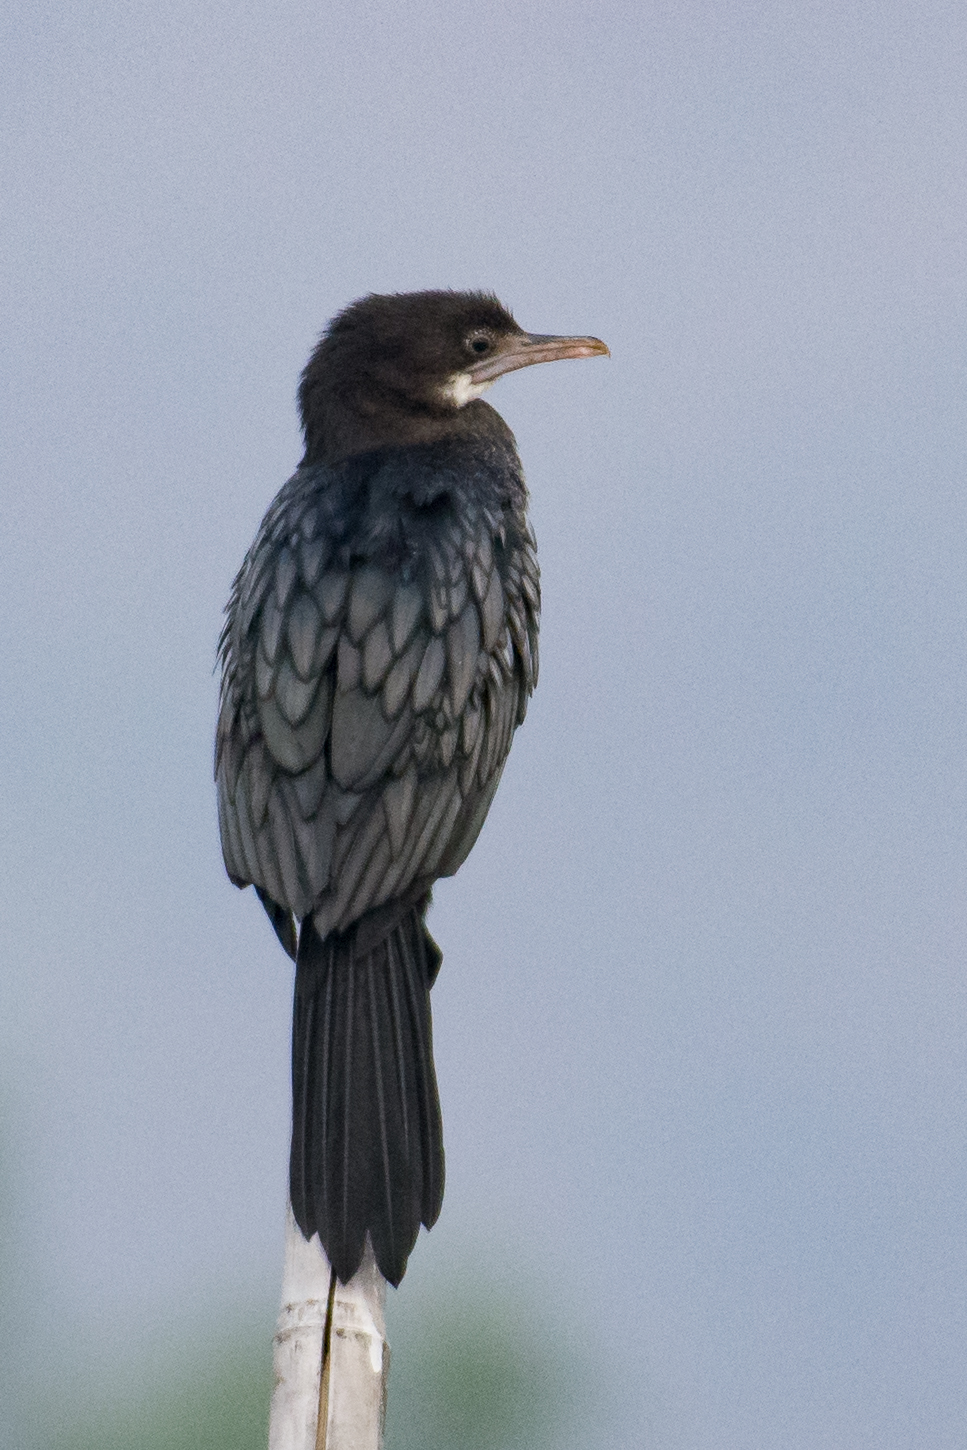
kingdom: Animalia
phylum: Chordata
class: Aves
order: Suliformes
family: Phalacrocoracidae
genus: Microcarbo
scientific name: Microcarbo niger
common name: Little cormorant
